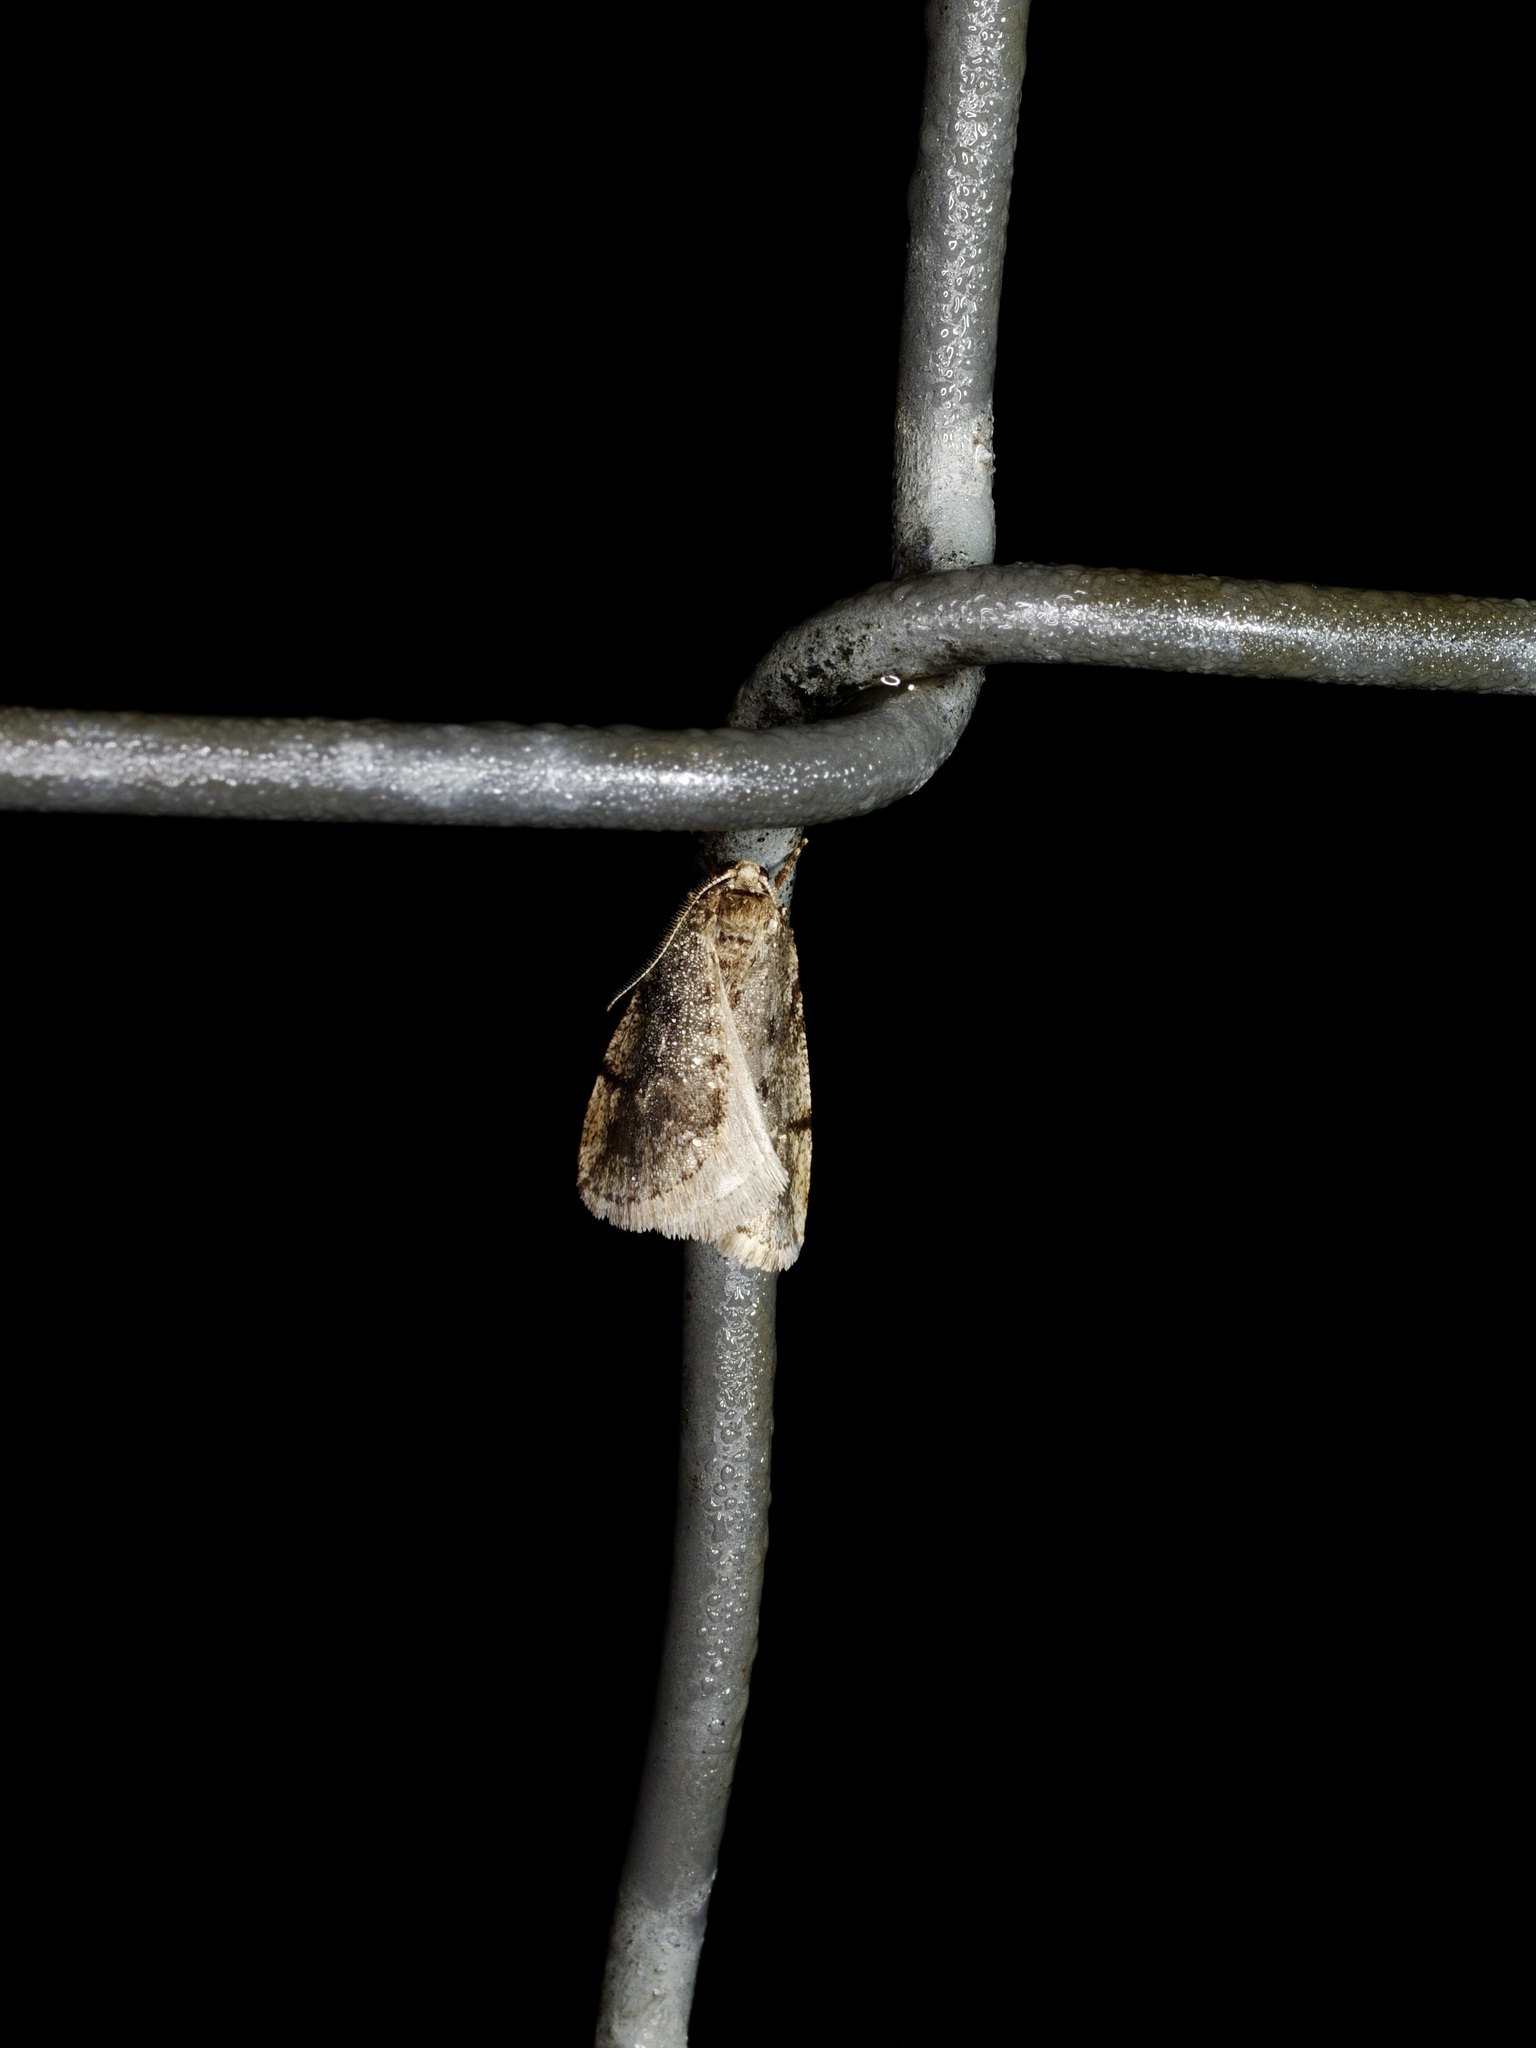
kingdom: Animalia
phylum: Arthropoda
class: Insecta
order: Lepidoptera
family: Geometridae
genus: Paleacrita
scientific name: Paleacrita vernata
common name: Spring cankerworm
